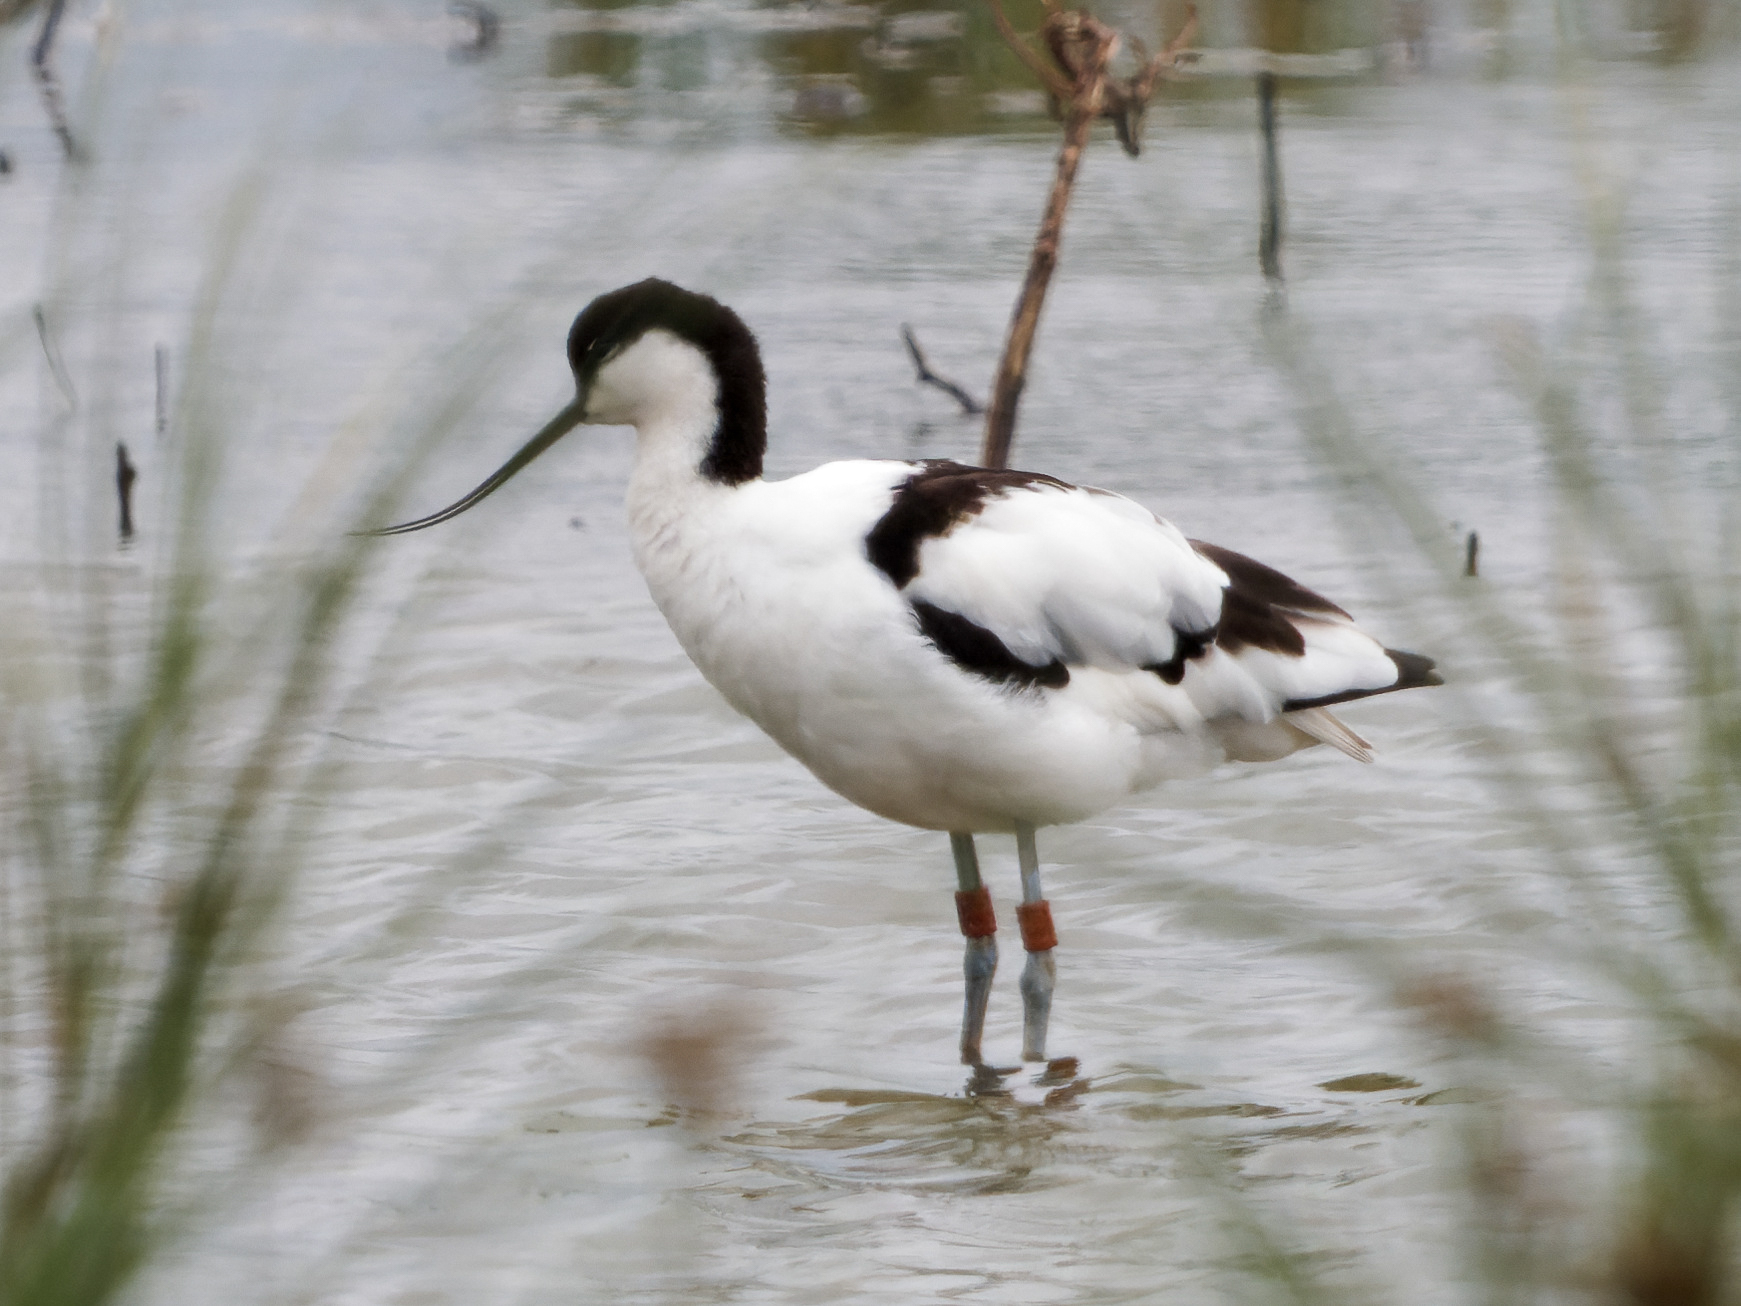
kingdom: Animalia
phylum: Chordata
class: Aves
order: Charadriiformes
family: Recurvirostridae
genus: Recurvirostra
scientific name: Recurvirostra avosetta
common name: Pied avocet
